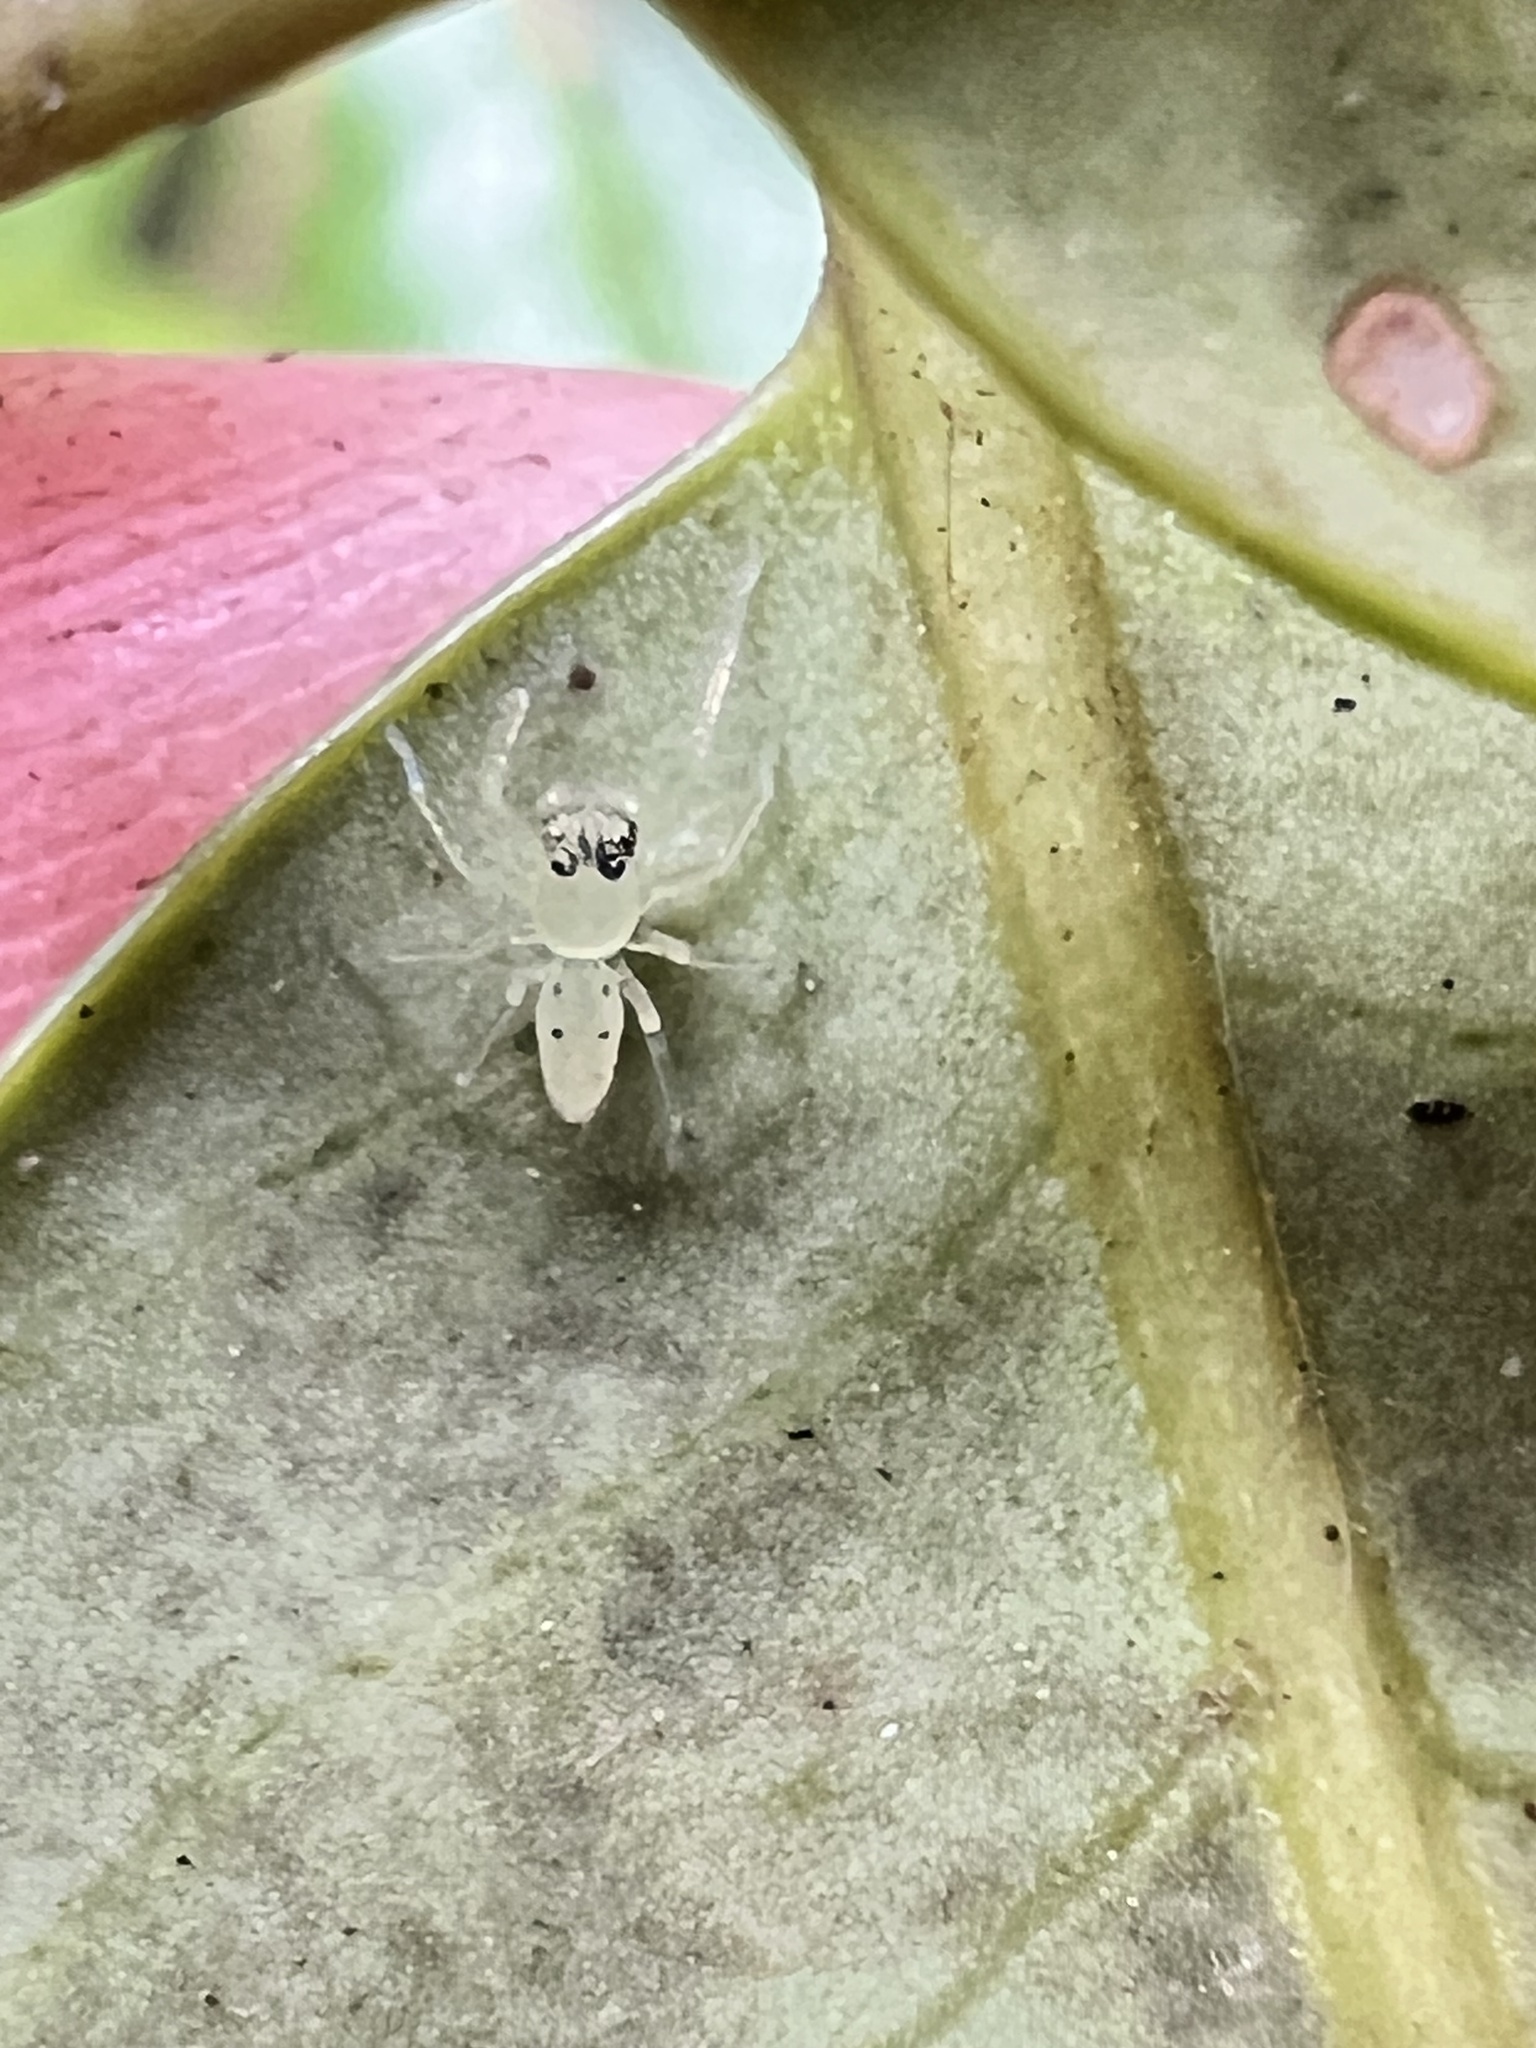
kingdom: Animalia
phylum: Arthropoda
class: Arachnida
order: Araneae
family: Salticidae
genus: Lyssomanes
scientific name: Lyssomanes viridis
